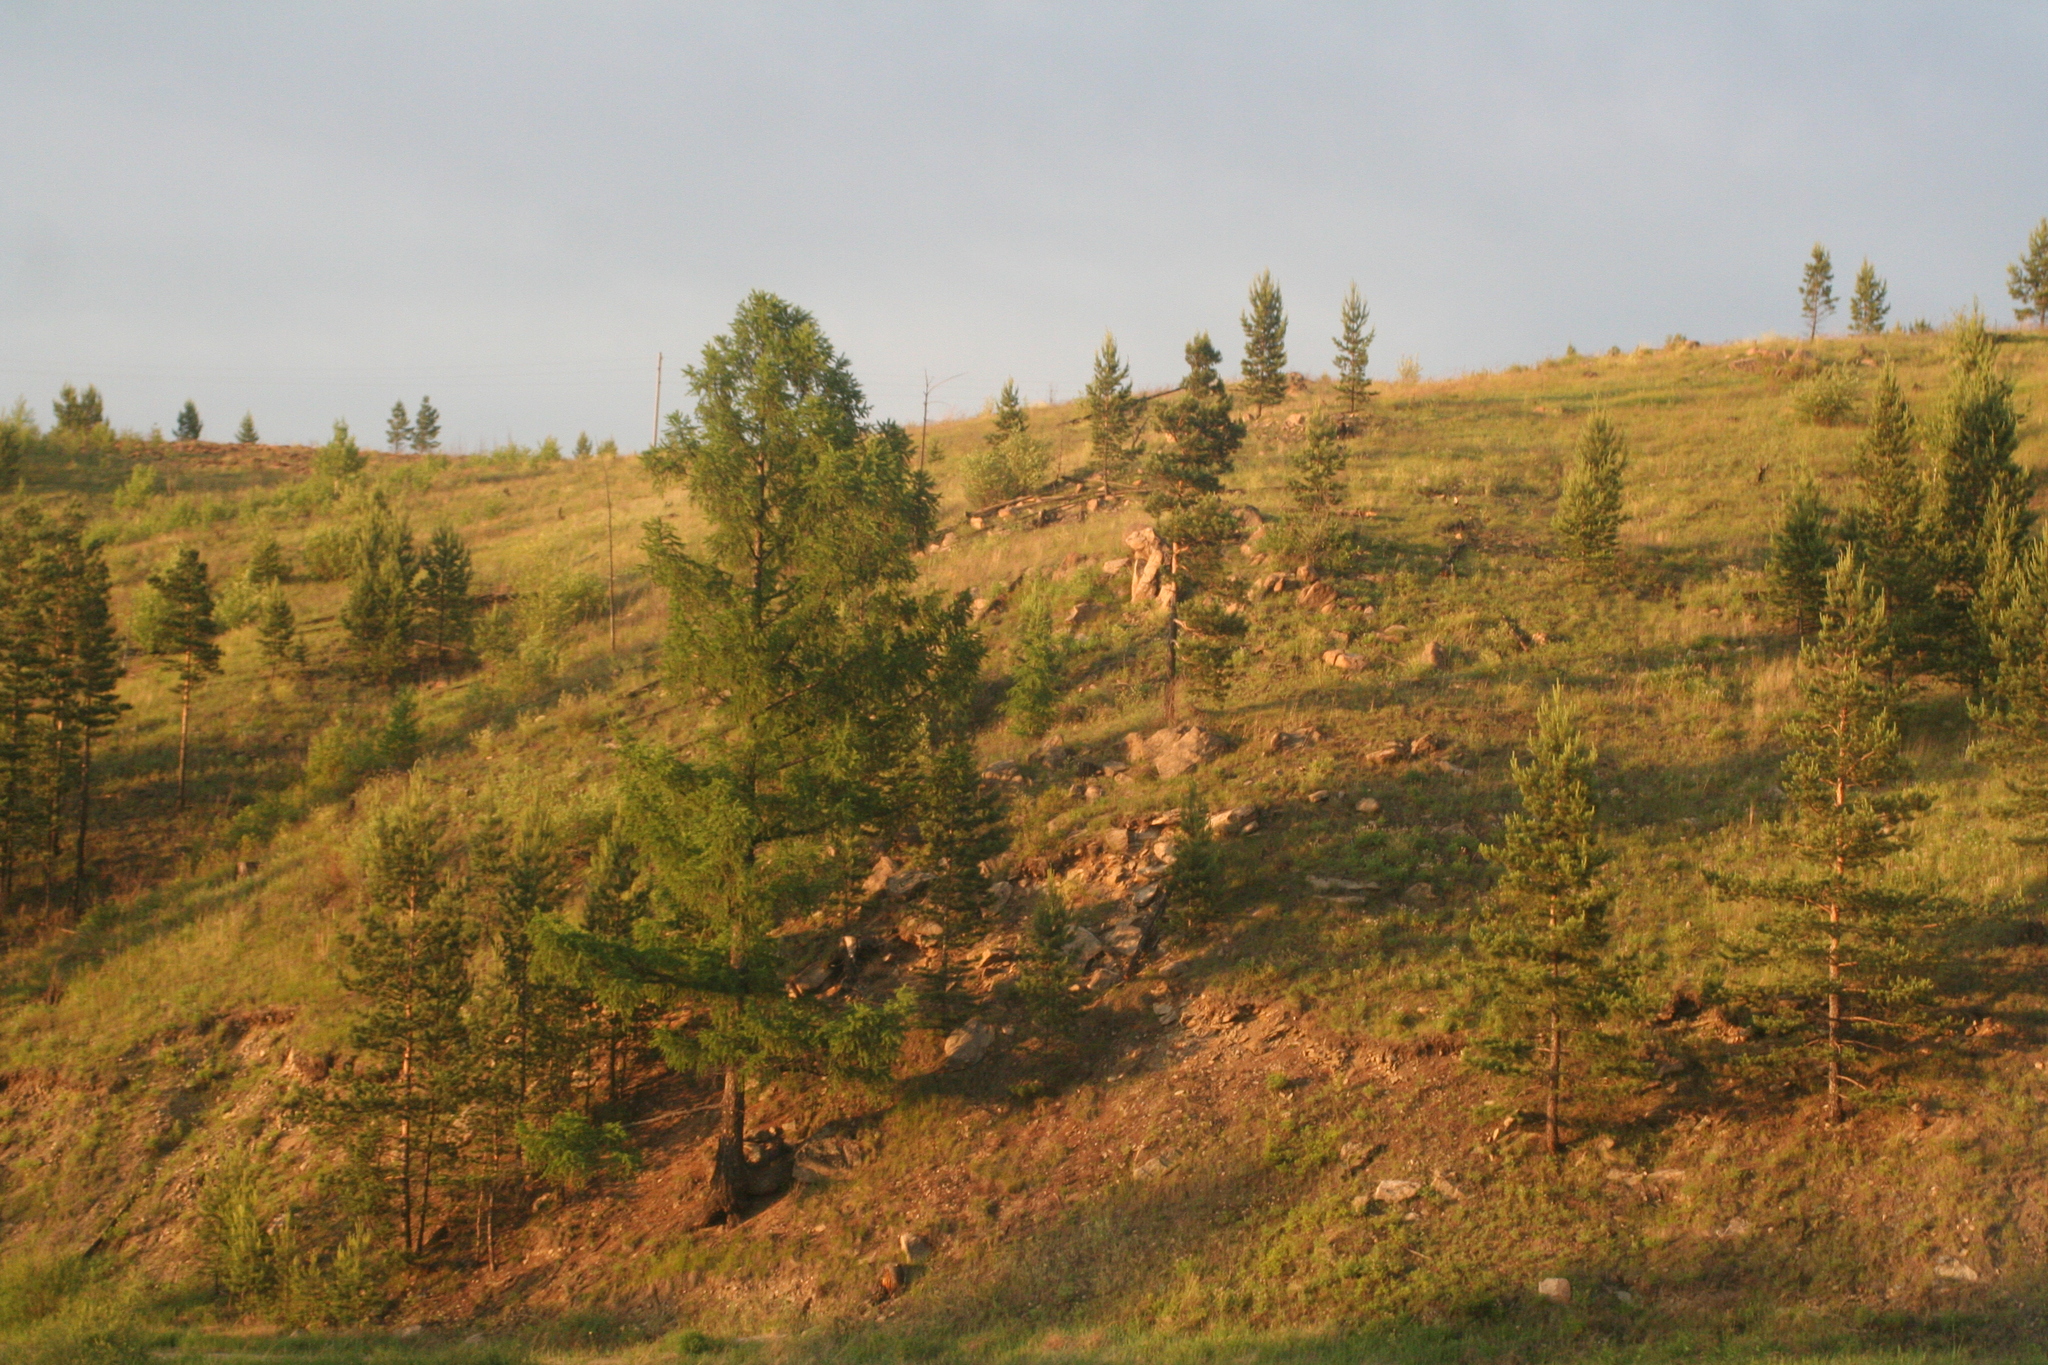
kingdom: Plantae
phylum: Tracheophyta
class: Pinopsida
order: Pinales
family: Pinaceae
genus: Larix
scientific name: Larix sibirica
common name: Siberian larch
